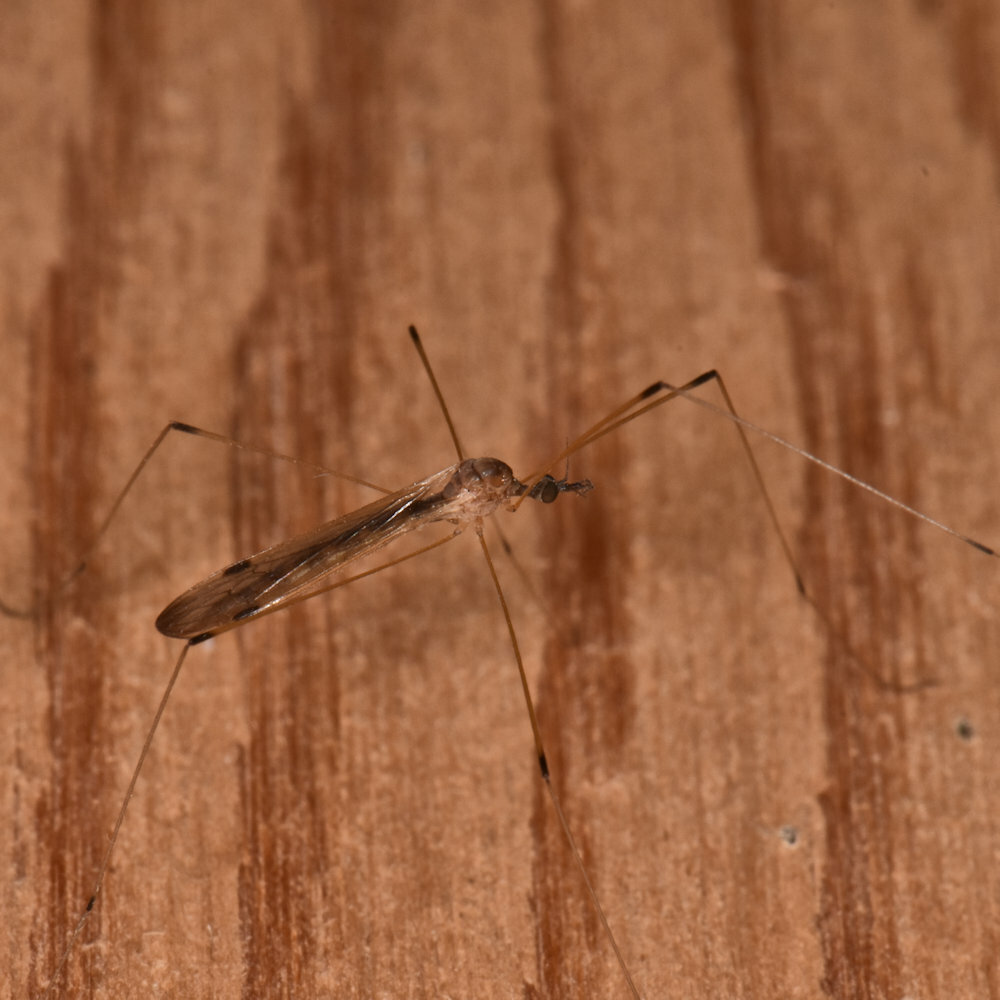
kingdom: Animalia
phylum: Arthropoda
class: Insecta
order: Diptera
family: Limoniidae
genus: Helius
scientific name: Helius flavipes
